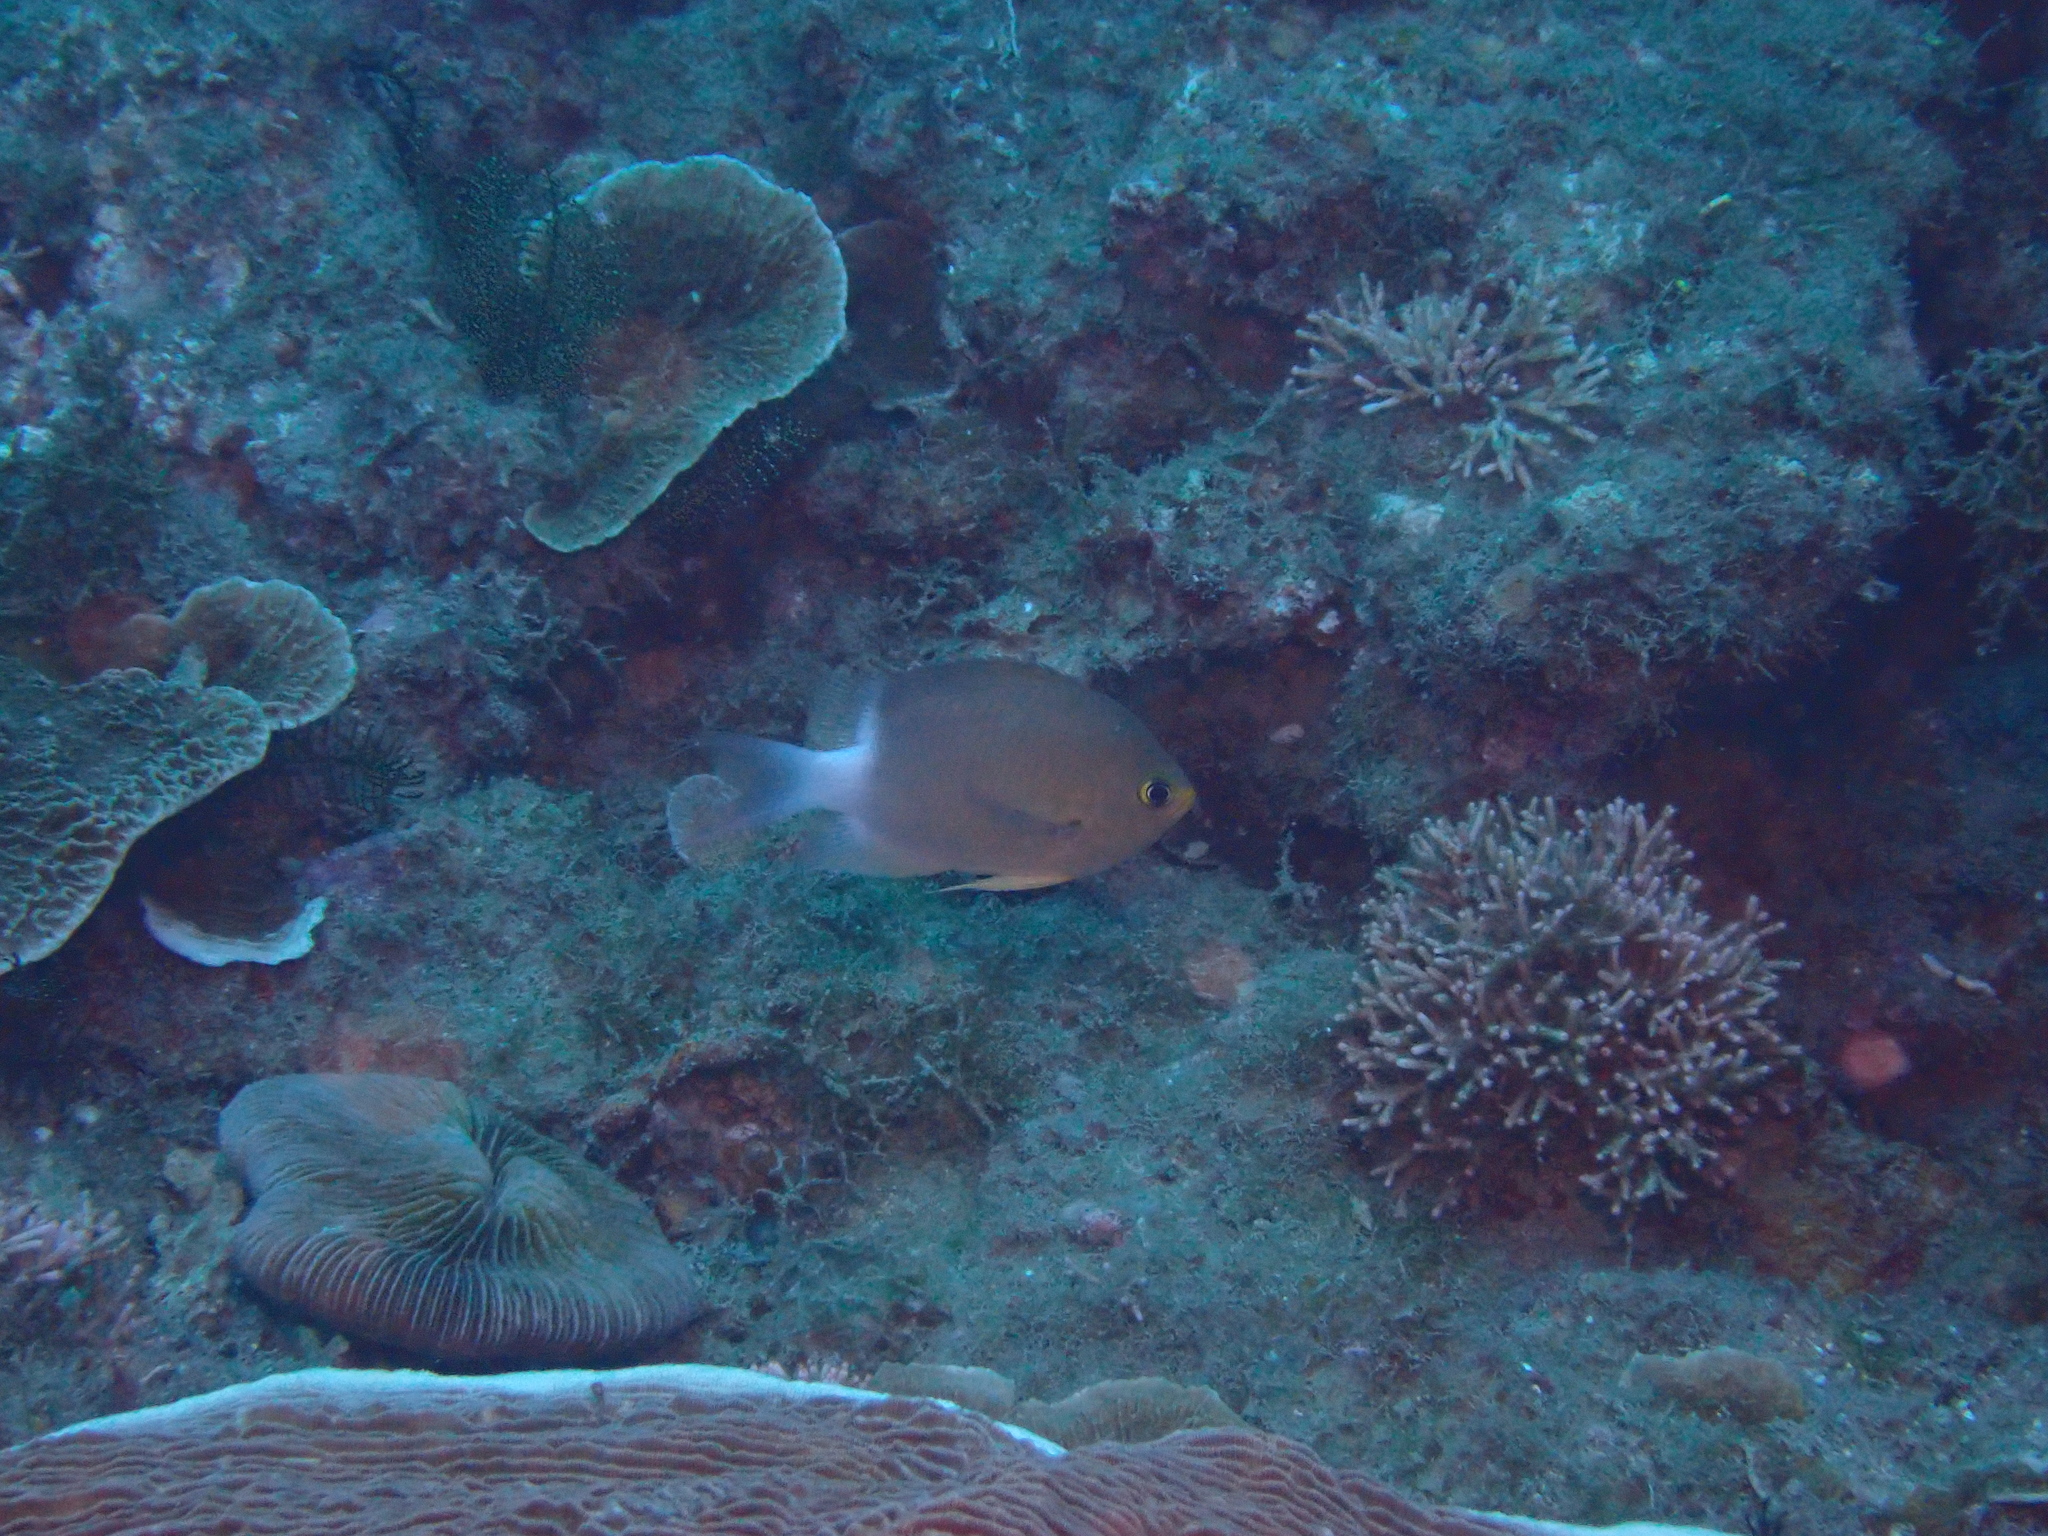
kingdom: Animalia
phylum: Chordata
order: Perciformes
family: Pomacentridae
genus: Chromis
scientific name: Chromis ovatiformes
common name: Ovate chromis
